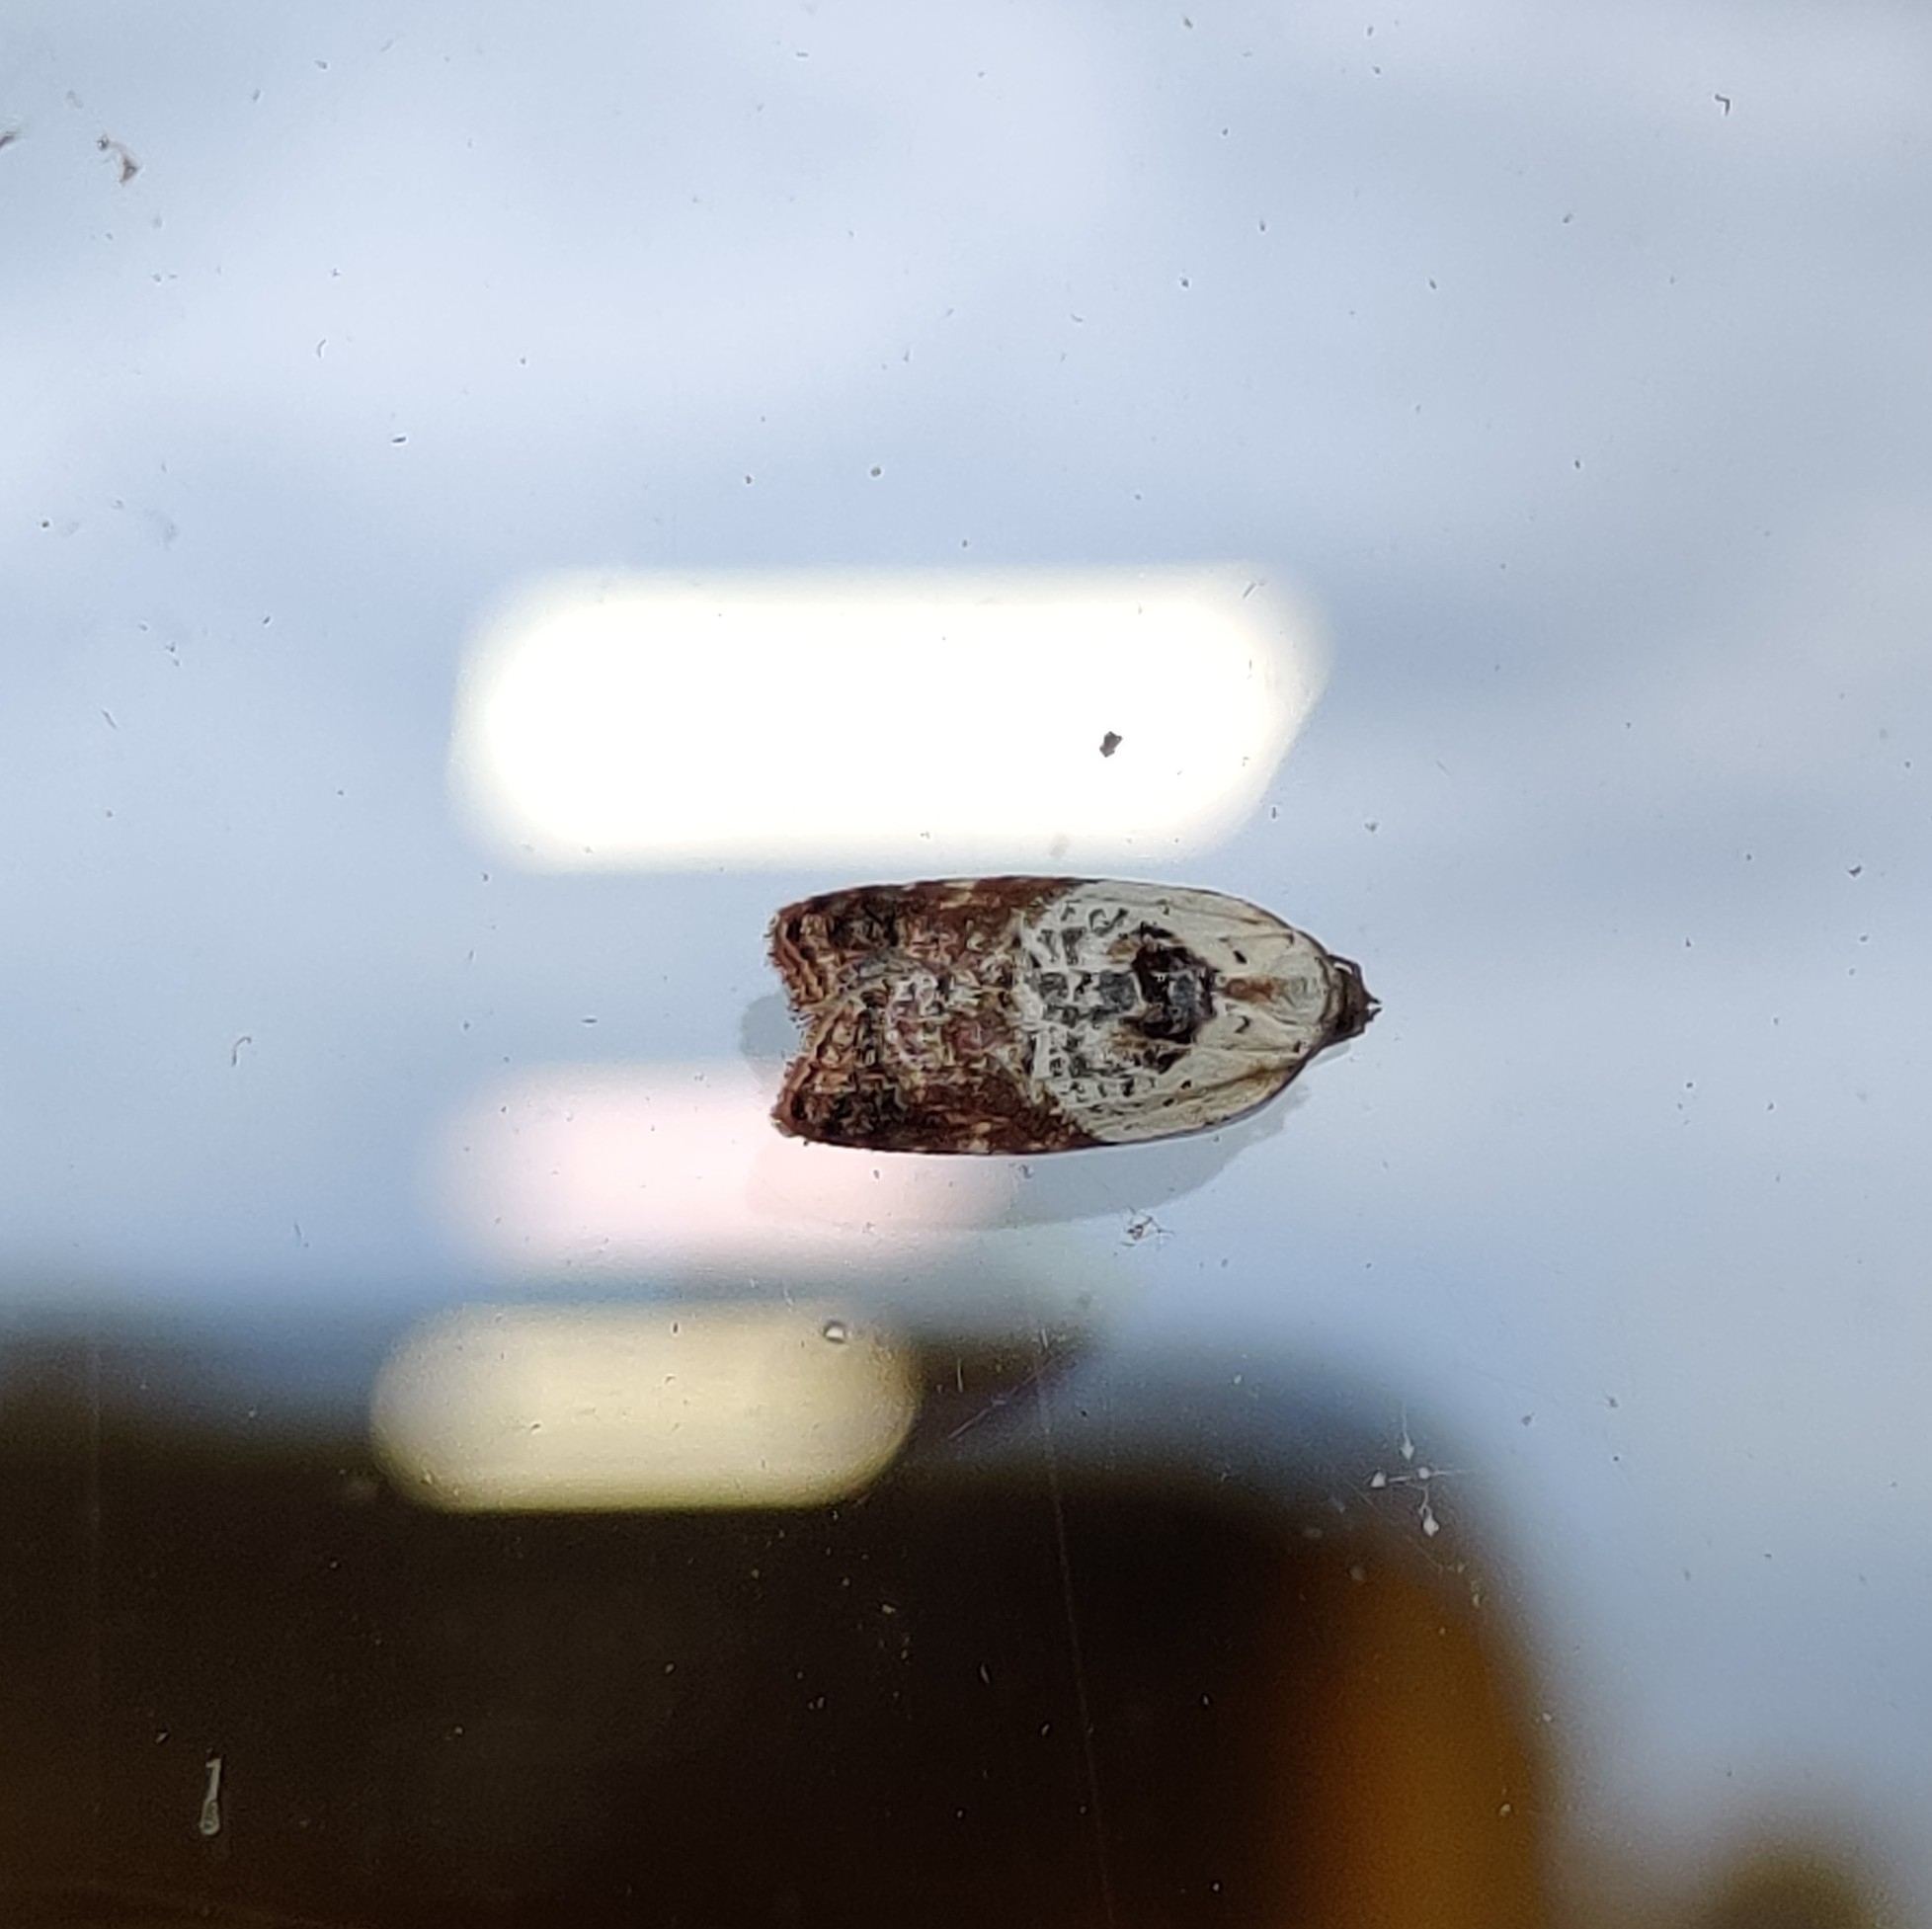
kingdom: Animalia
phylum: Arthropoda
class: Insecta
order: Lepidoptera
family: Tortricidae
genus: Acleris
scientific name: Acleris variegana
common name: Garden rose tortrix
